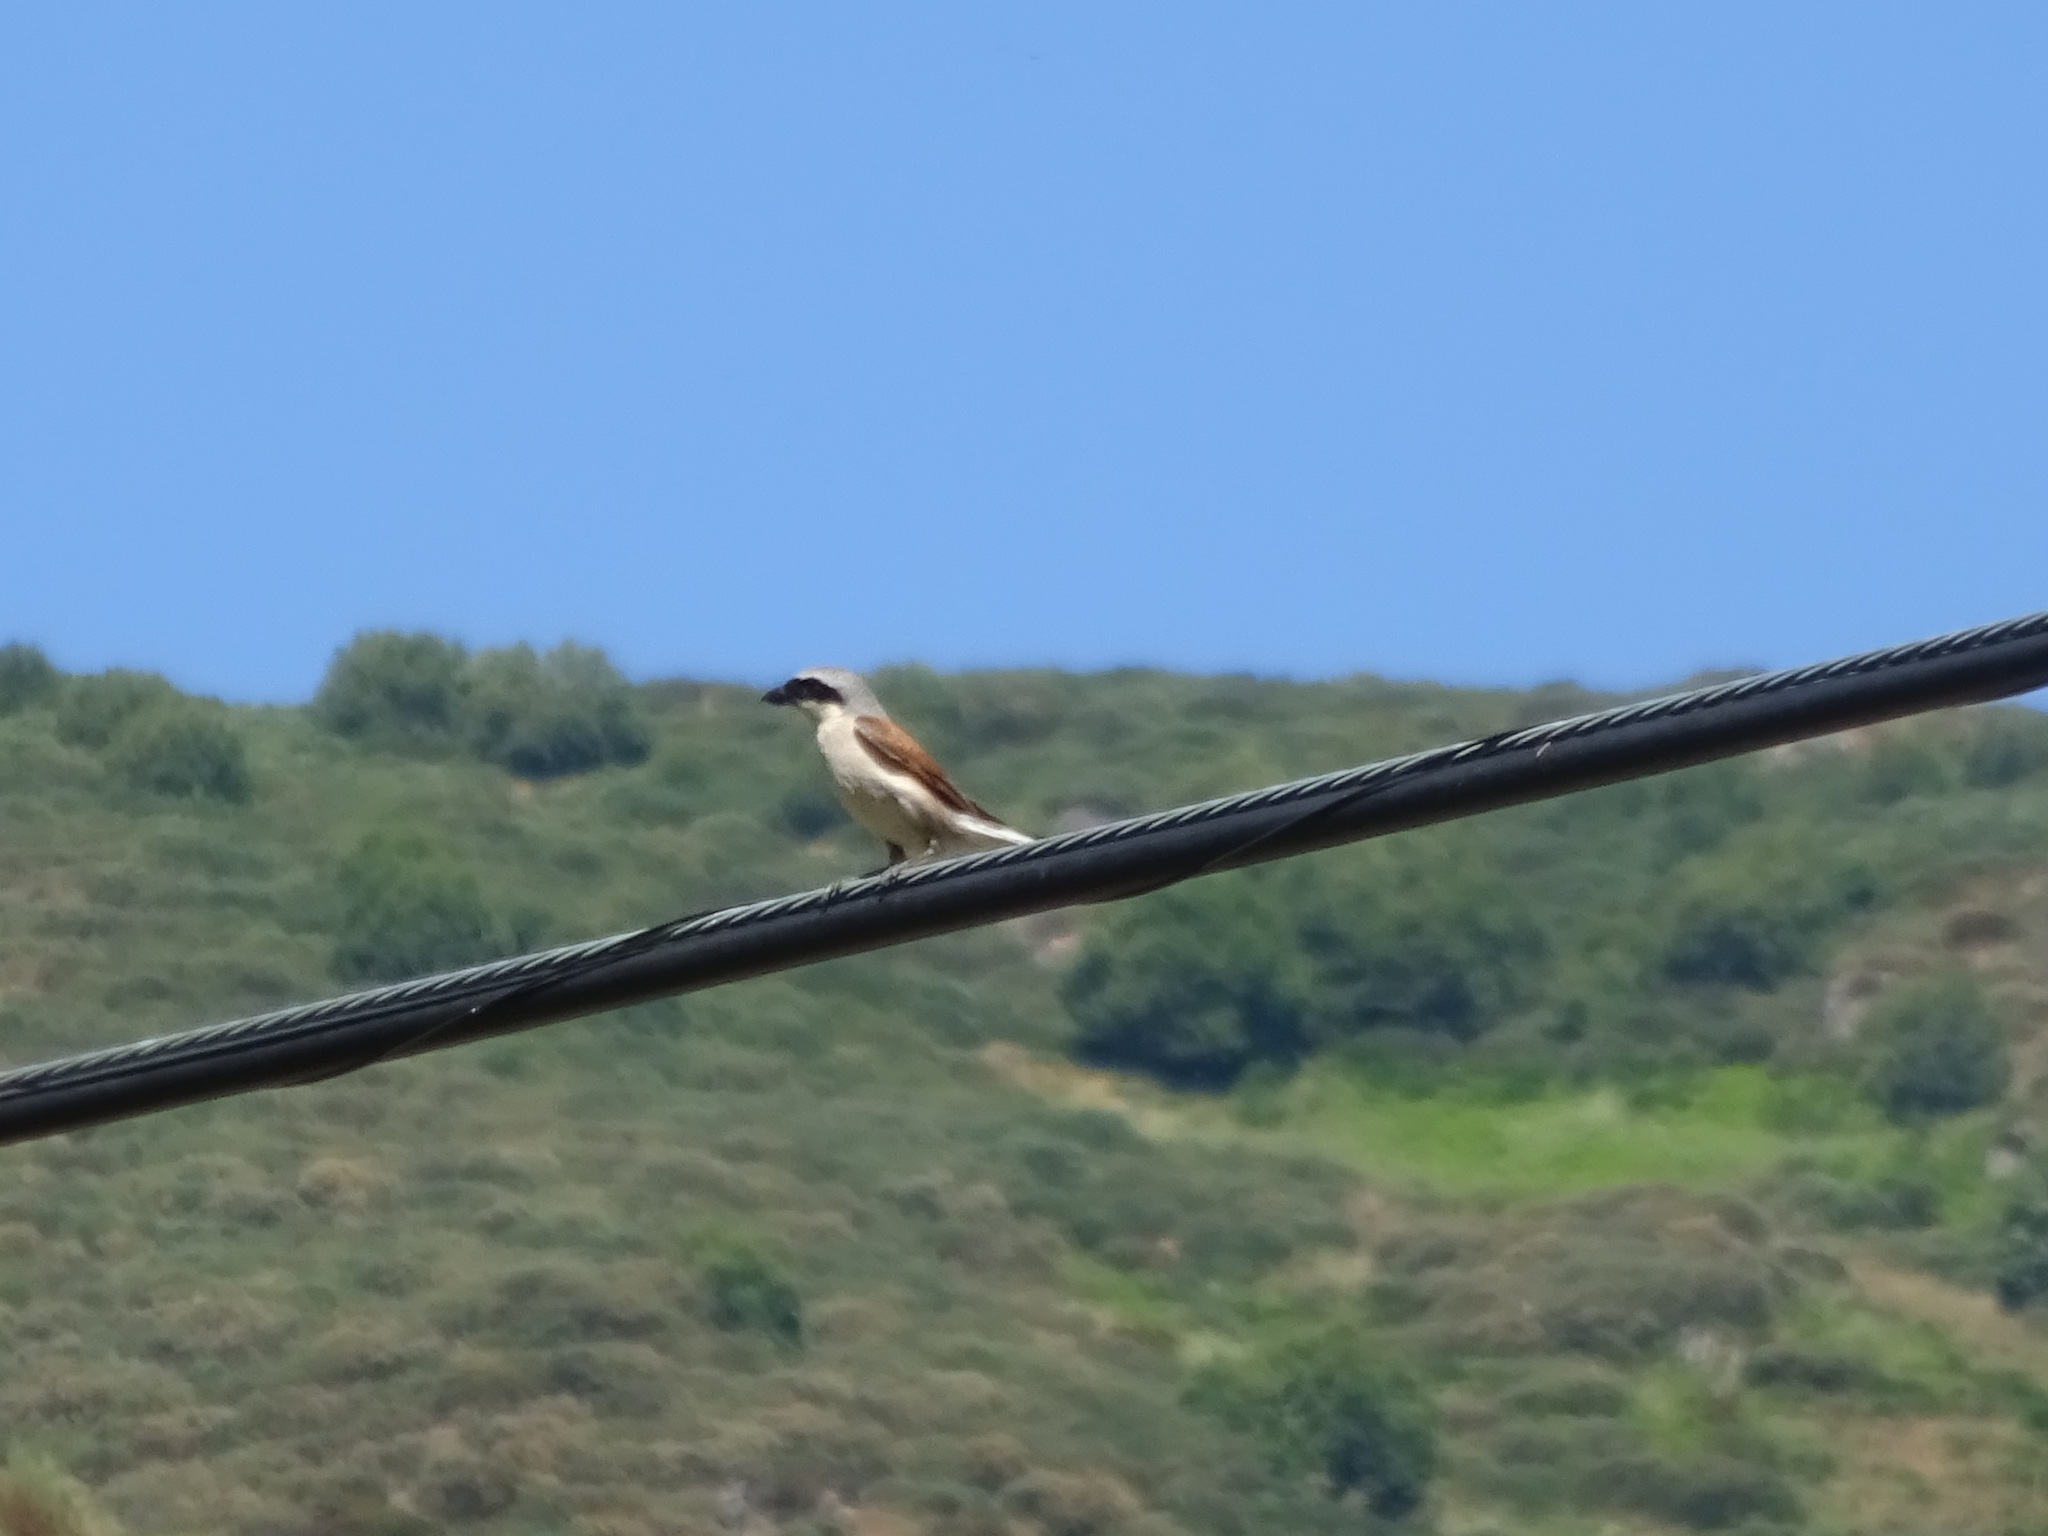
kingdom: Animalia
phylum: Chordata
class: Aves
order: Passeriformes
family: Laniidae
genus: Lanius
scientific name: Lanius collurio
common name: Red-backed shrike
